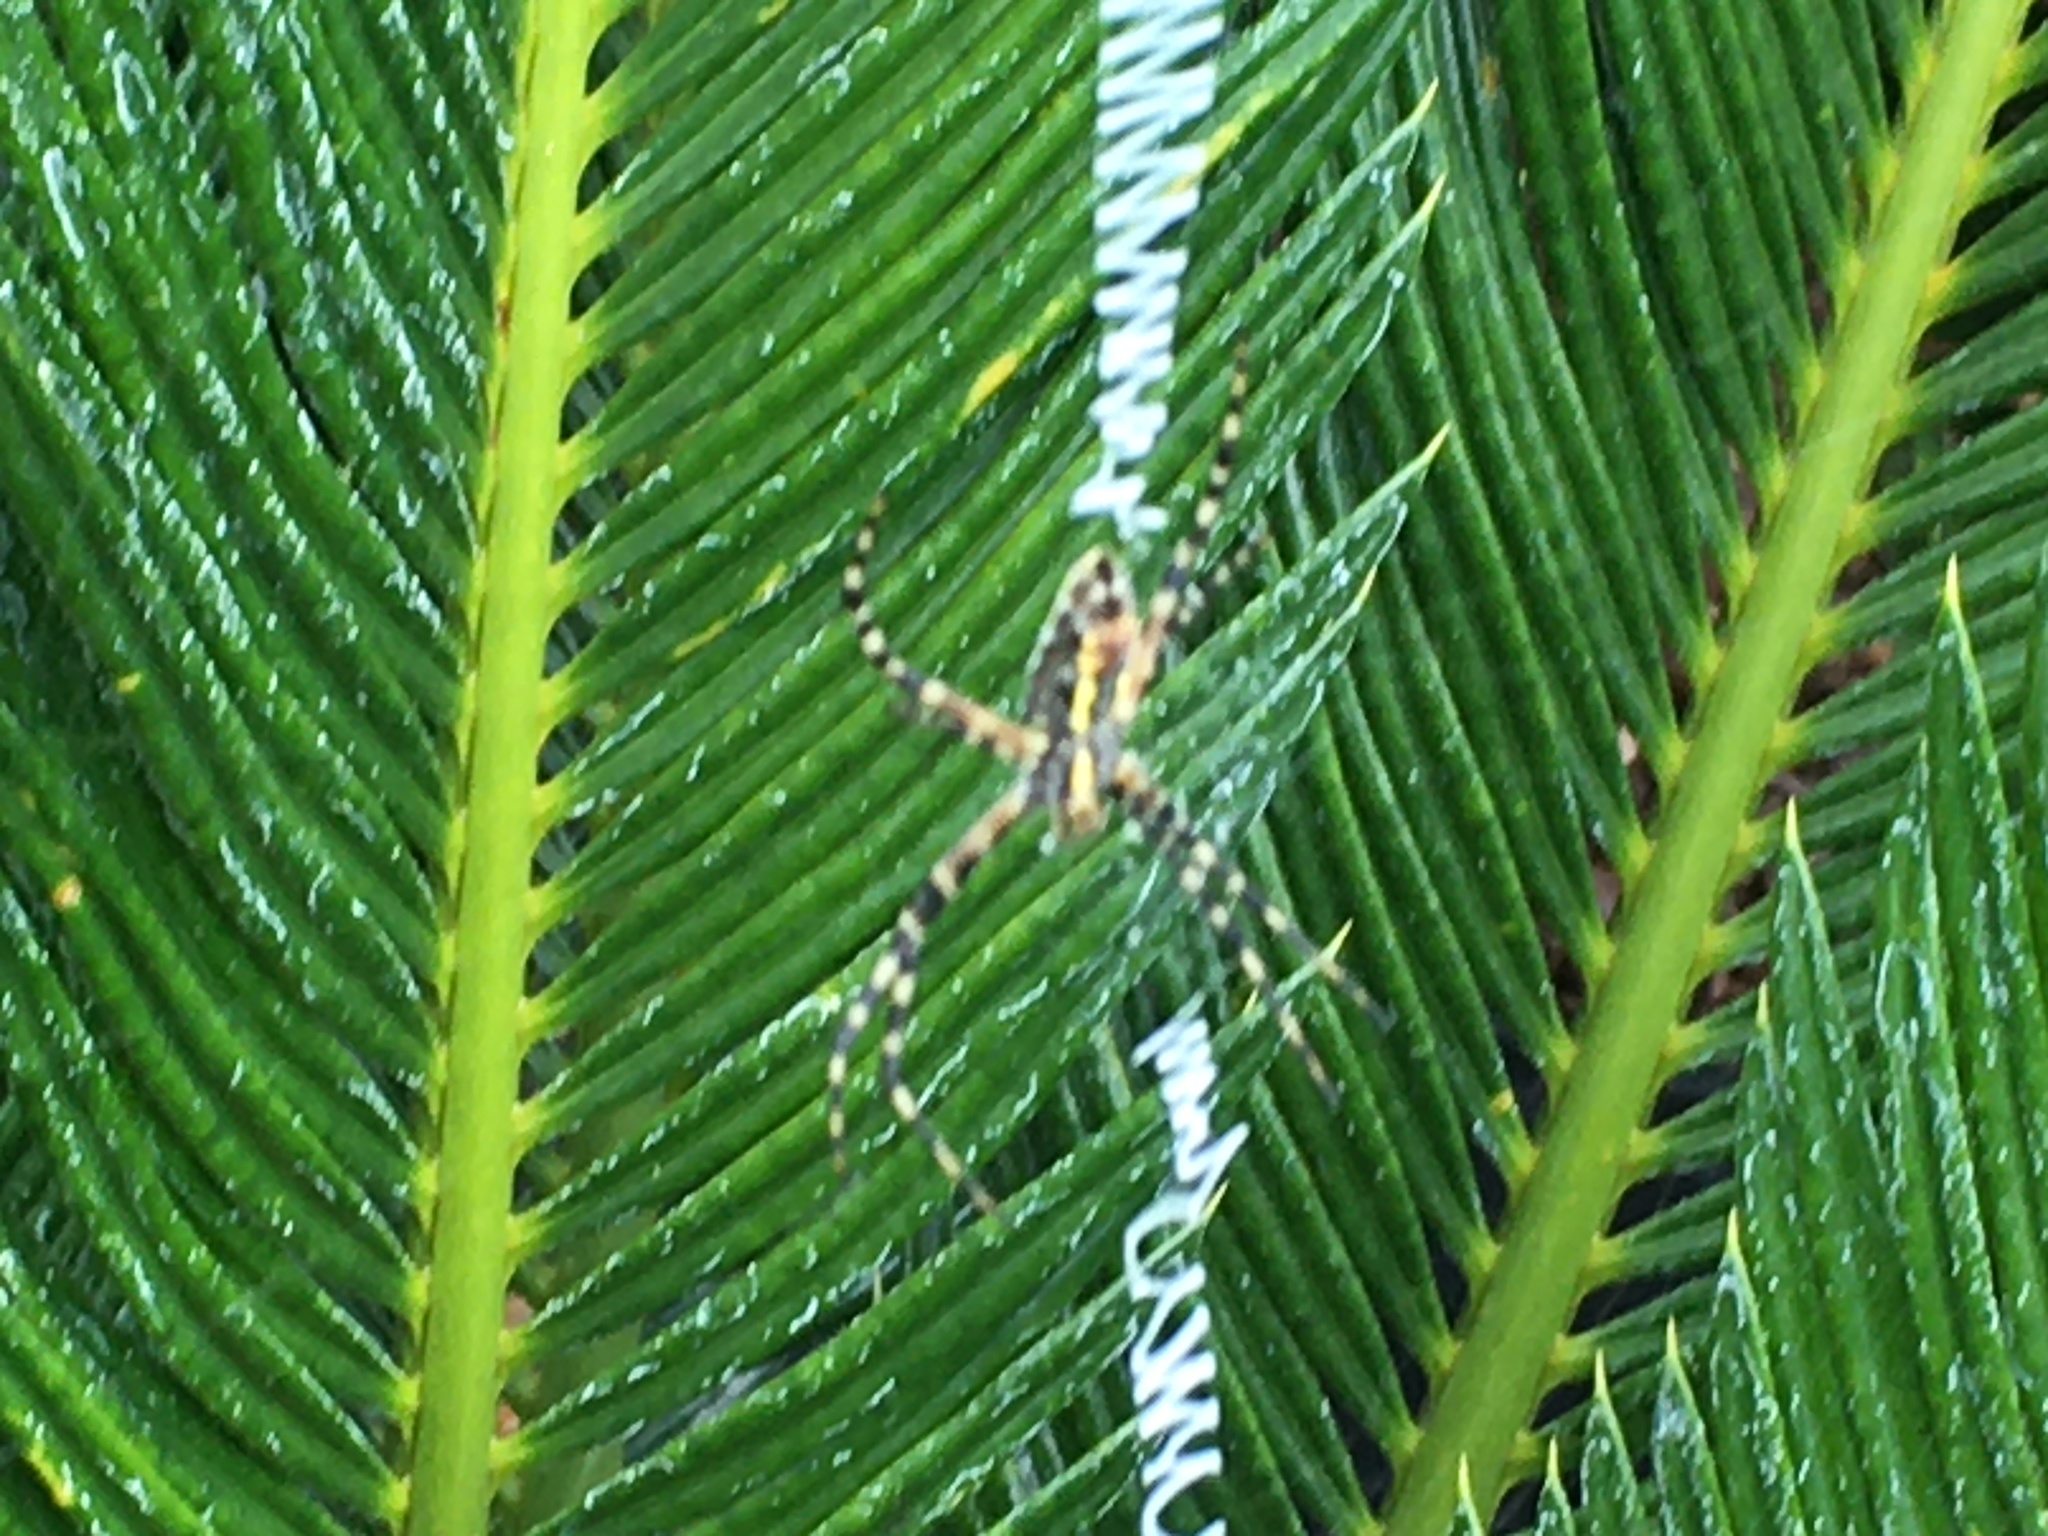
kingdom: Animalia
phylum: Arthropoda
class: Arachnida
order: Araneae
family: Araneidae
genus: Argiope
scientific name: Argiope aurantia
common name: Orb weavers
